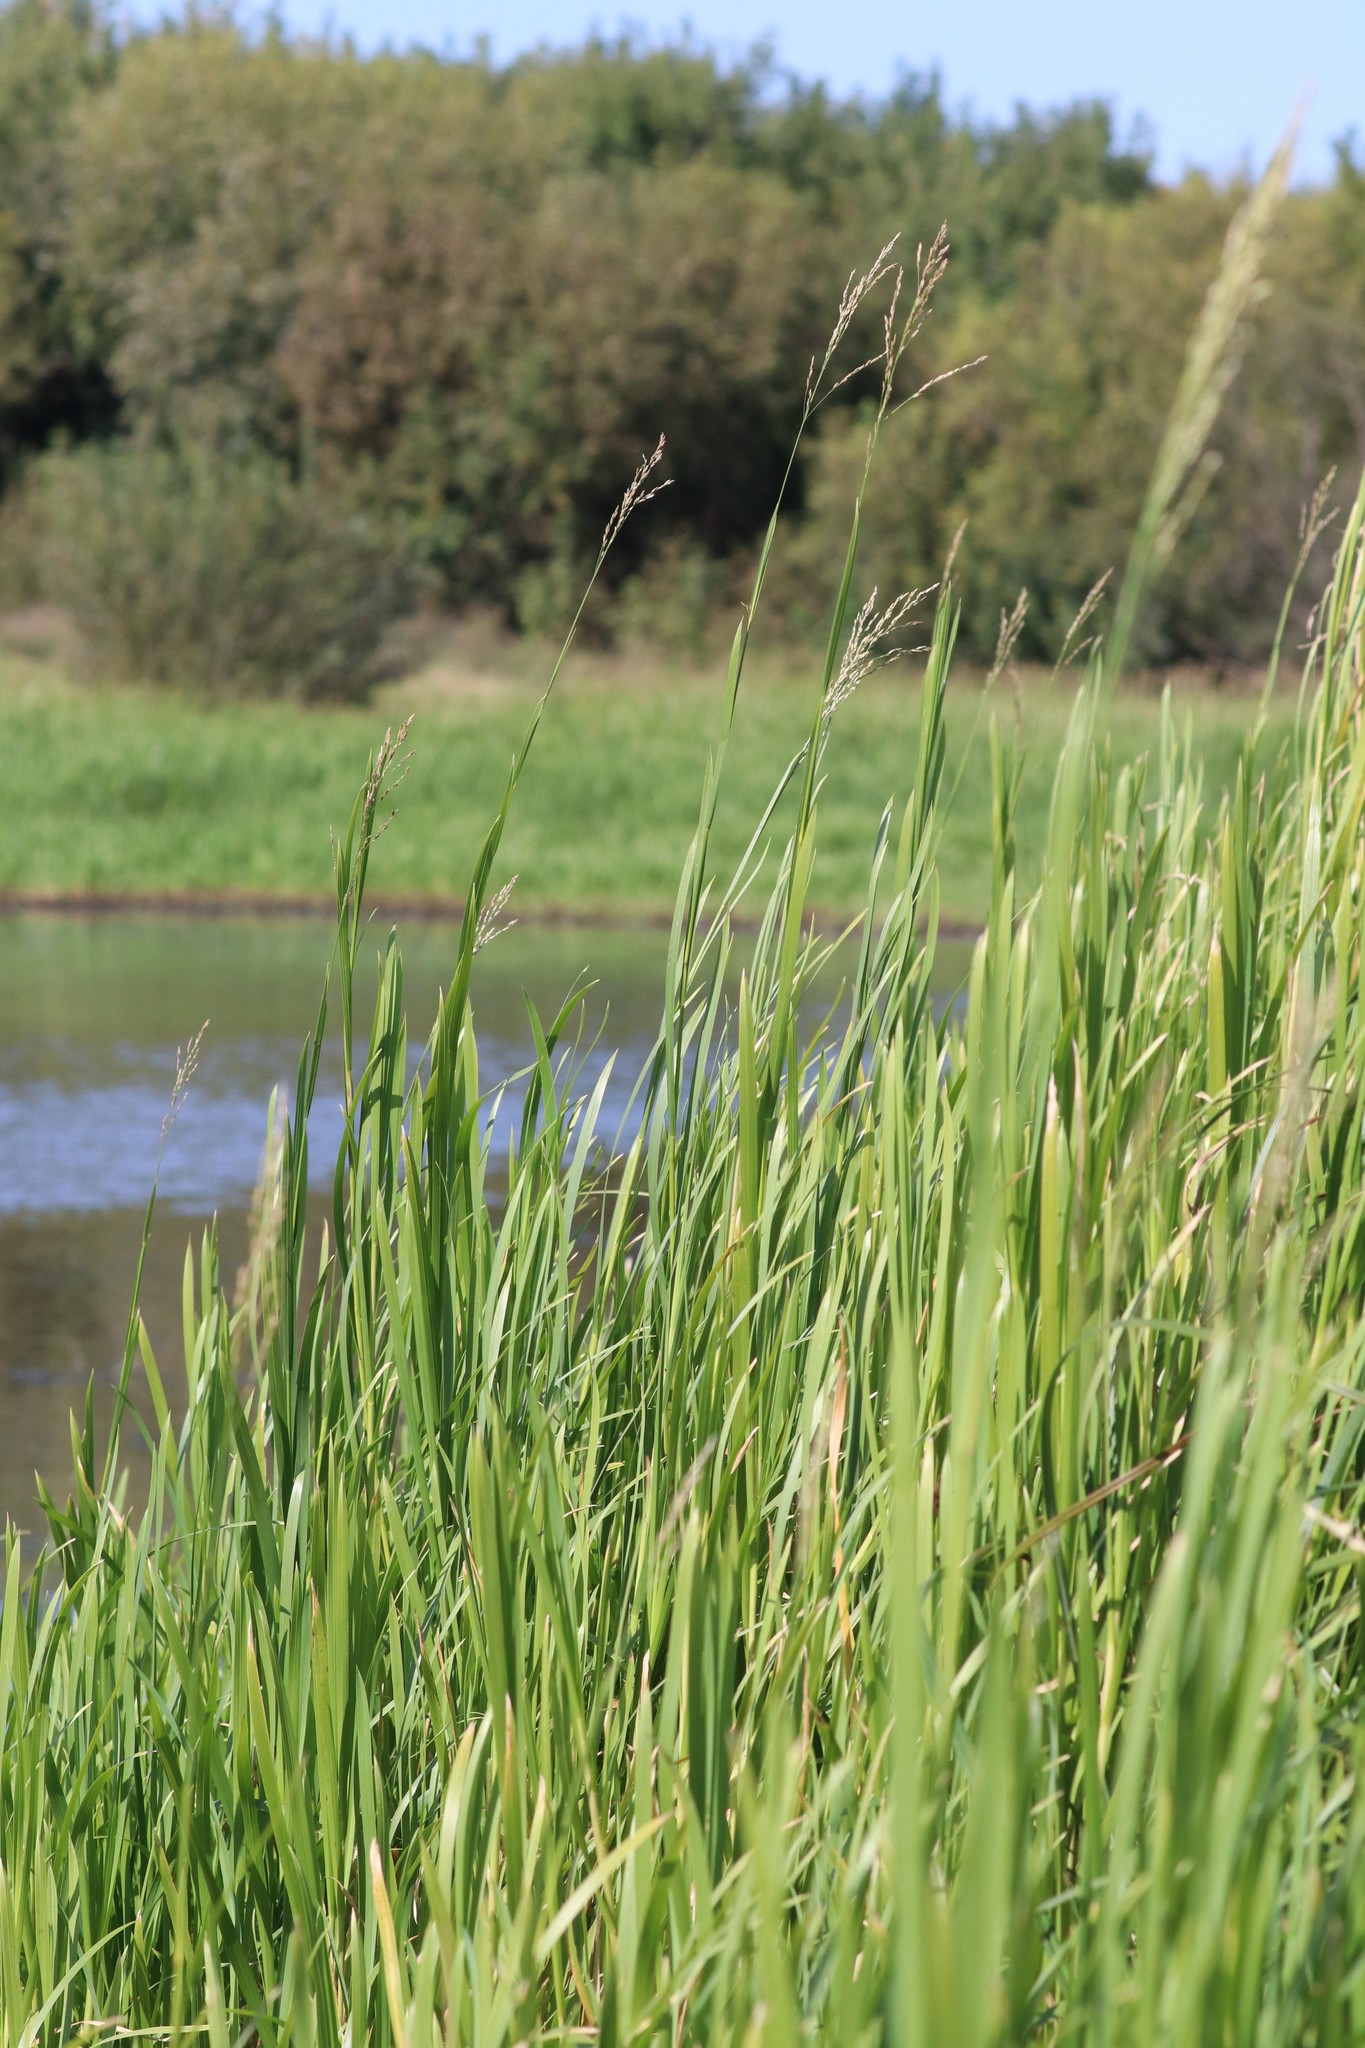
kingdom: Plantae
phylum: Tracheophyta
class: Liliopsida
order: Poales
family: Poaceae
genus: Glyceria
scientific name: Glyceria maxima
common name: Reed mannagrass
